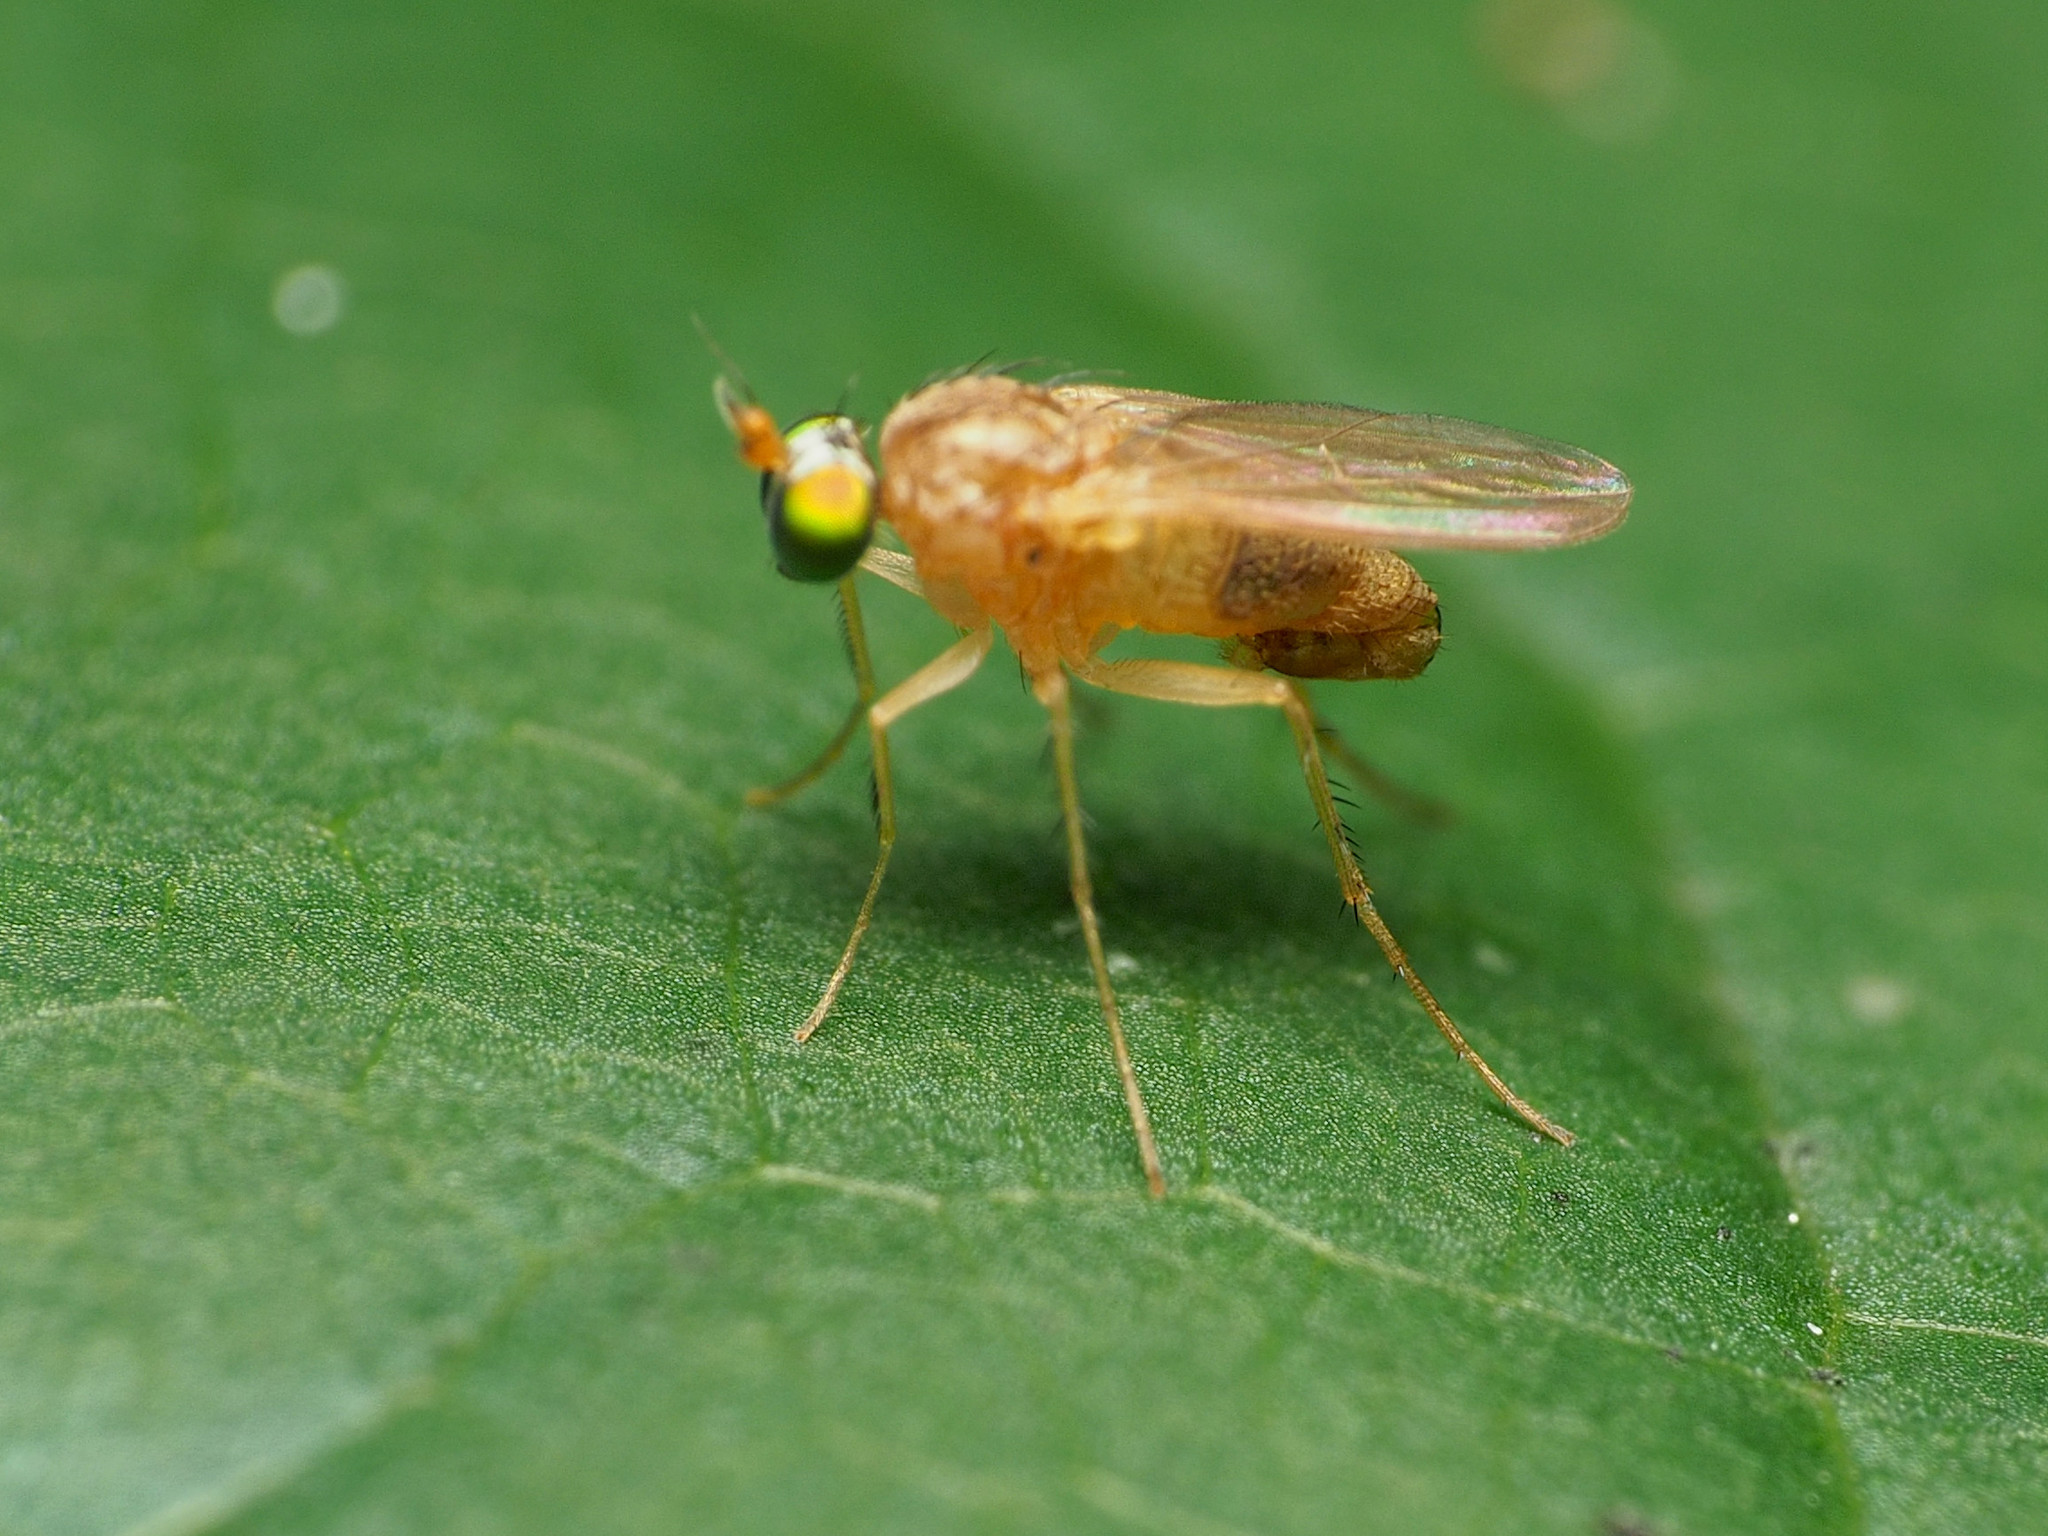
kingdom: Animalia
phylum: Arthropoda
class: Insecta
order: Diptera
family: Dolichopodidae
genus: Gymnopternus
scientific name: Gymnopternus flavus
